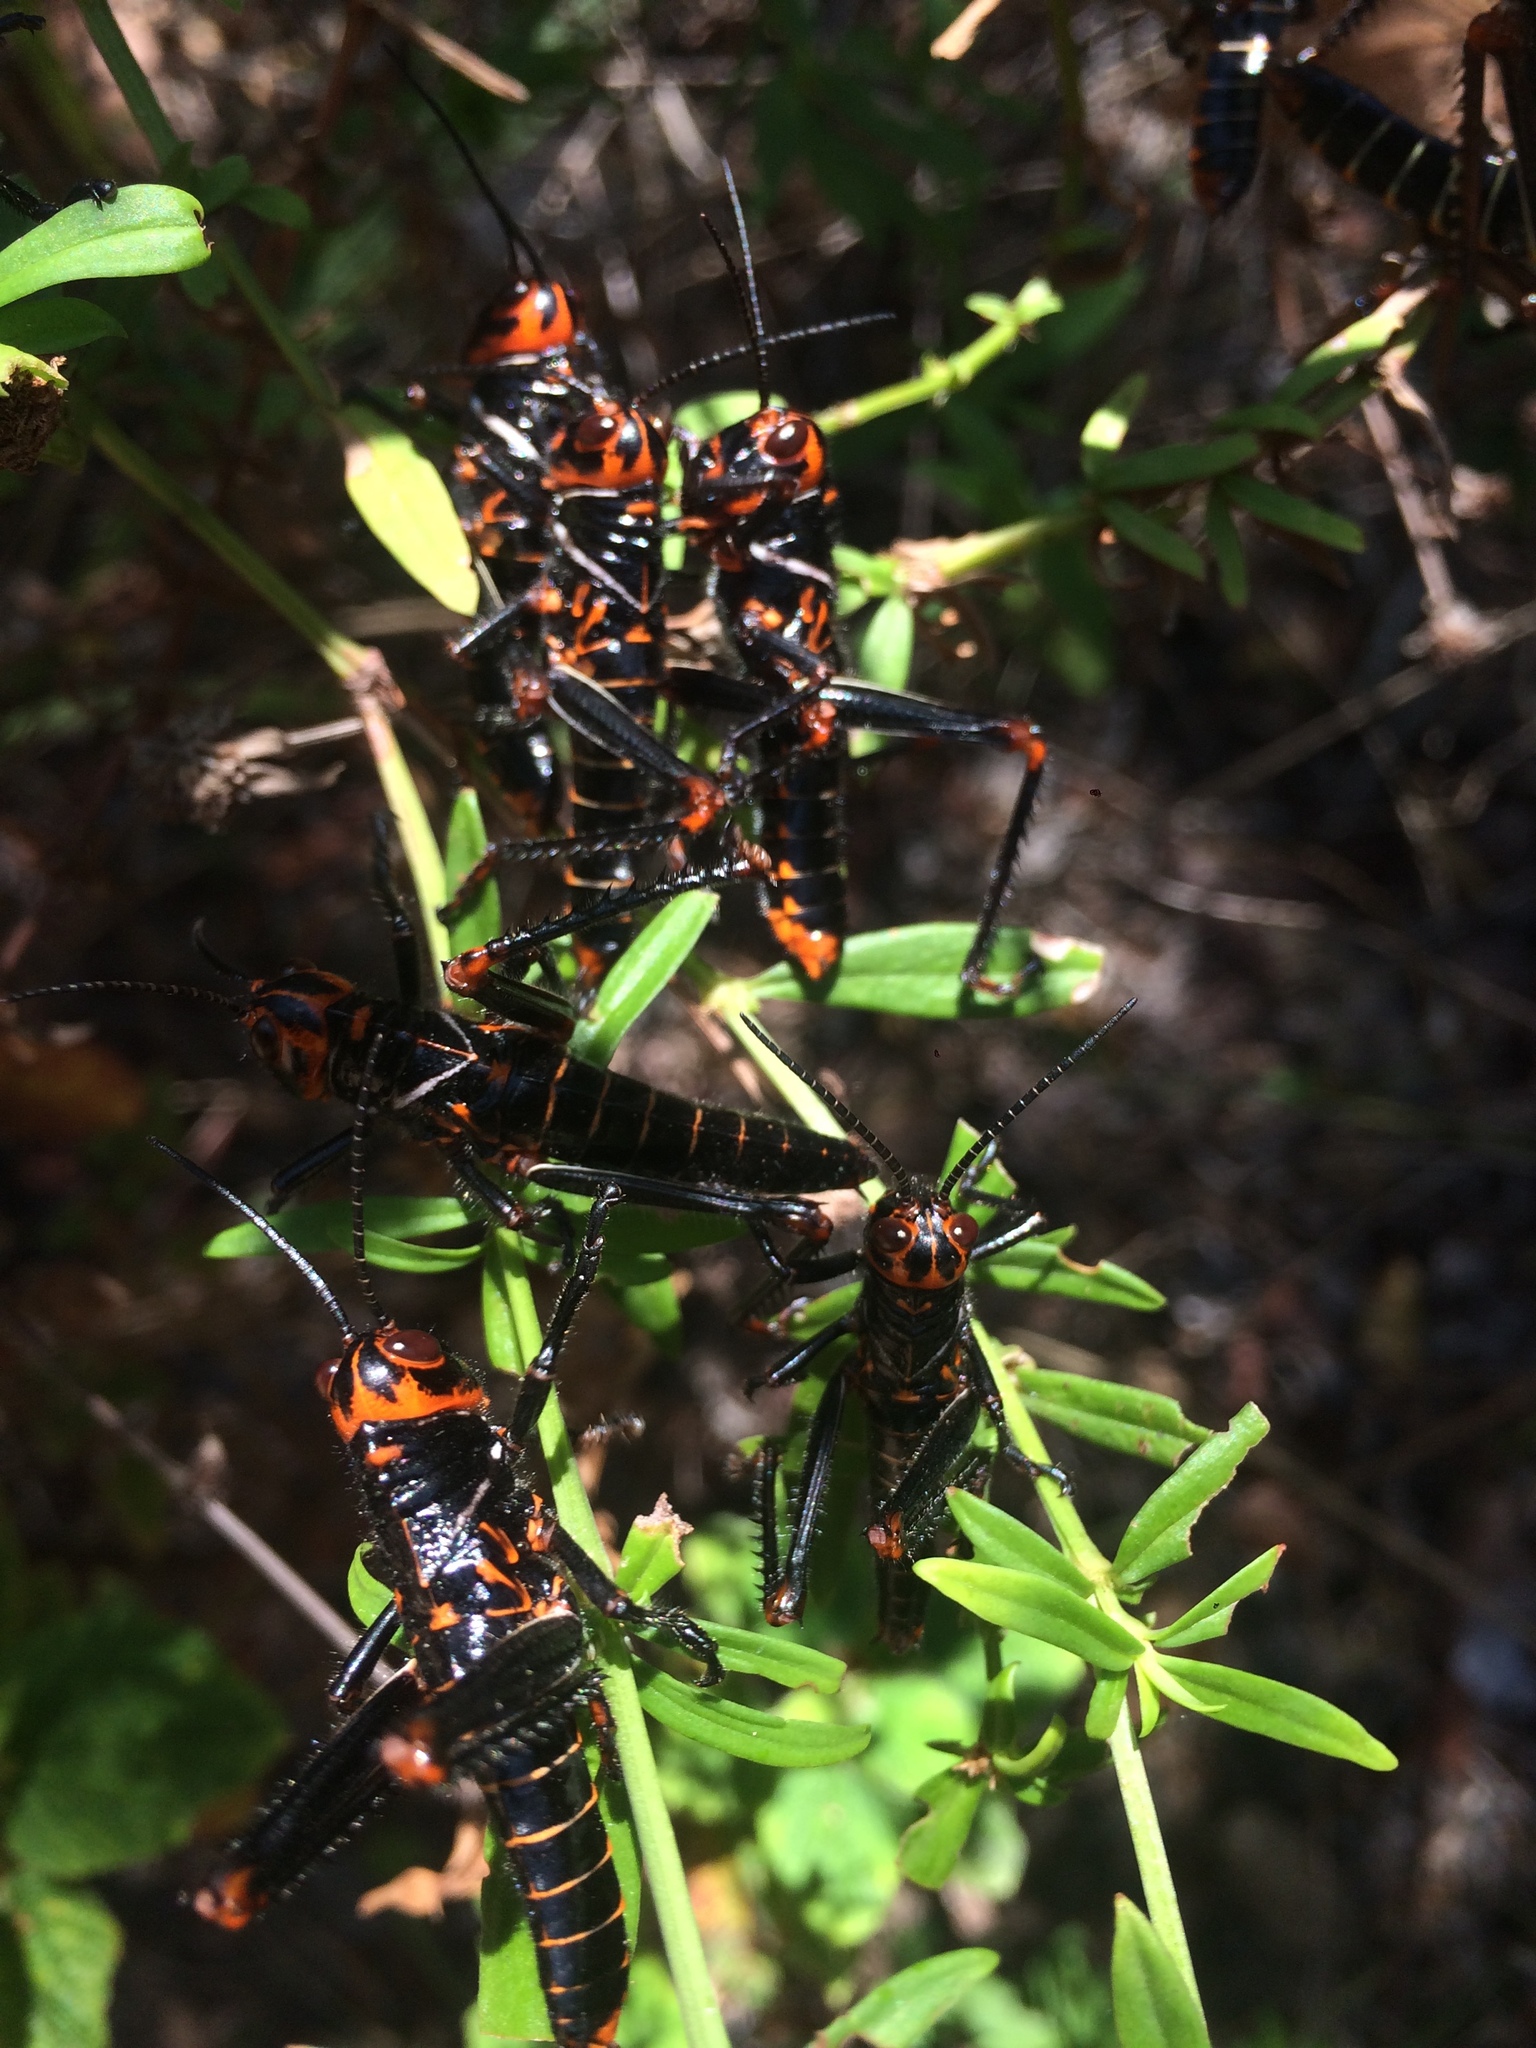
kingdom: Animalia
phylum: Arthropoda
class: Insecta
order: Orthoptera
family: Romaleidae
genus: Tropidacris
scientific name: Tropidacris collaris
